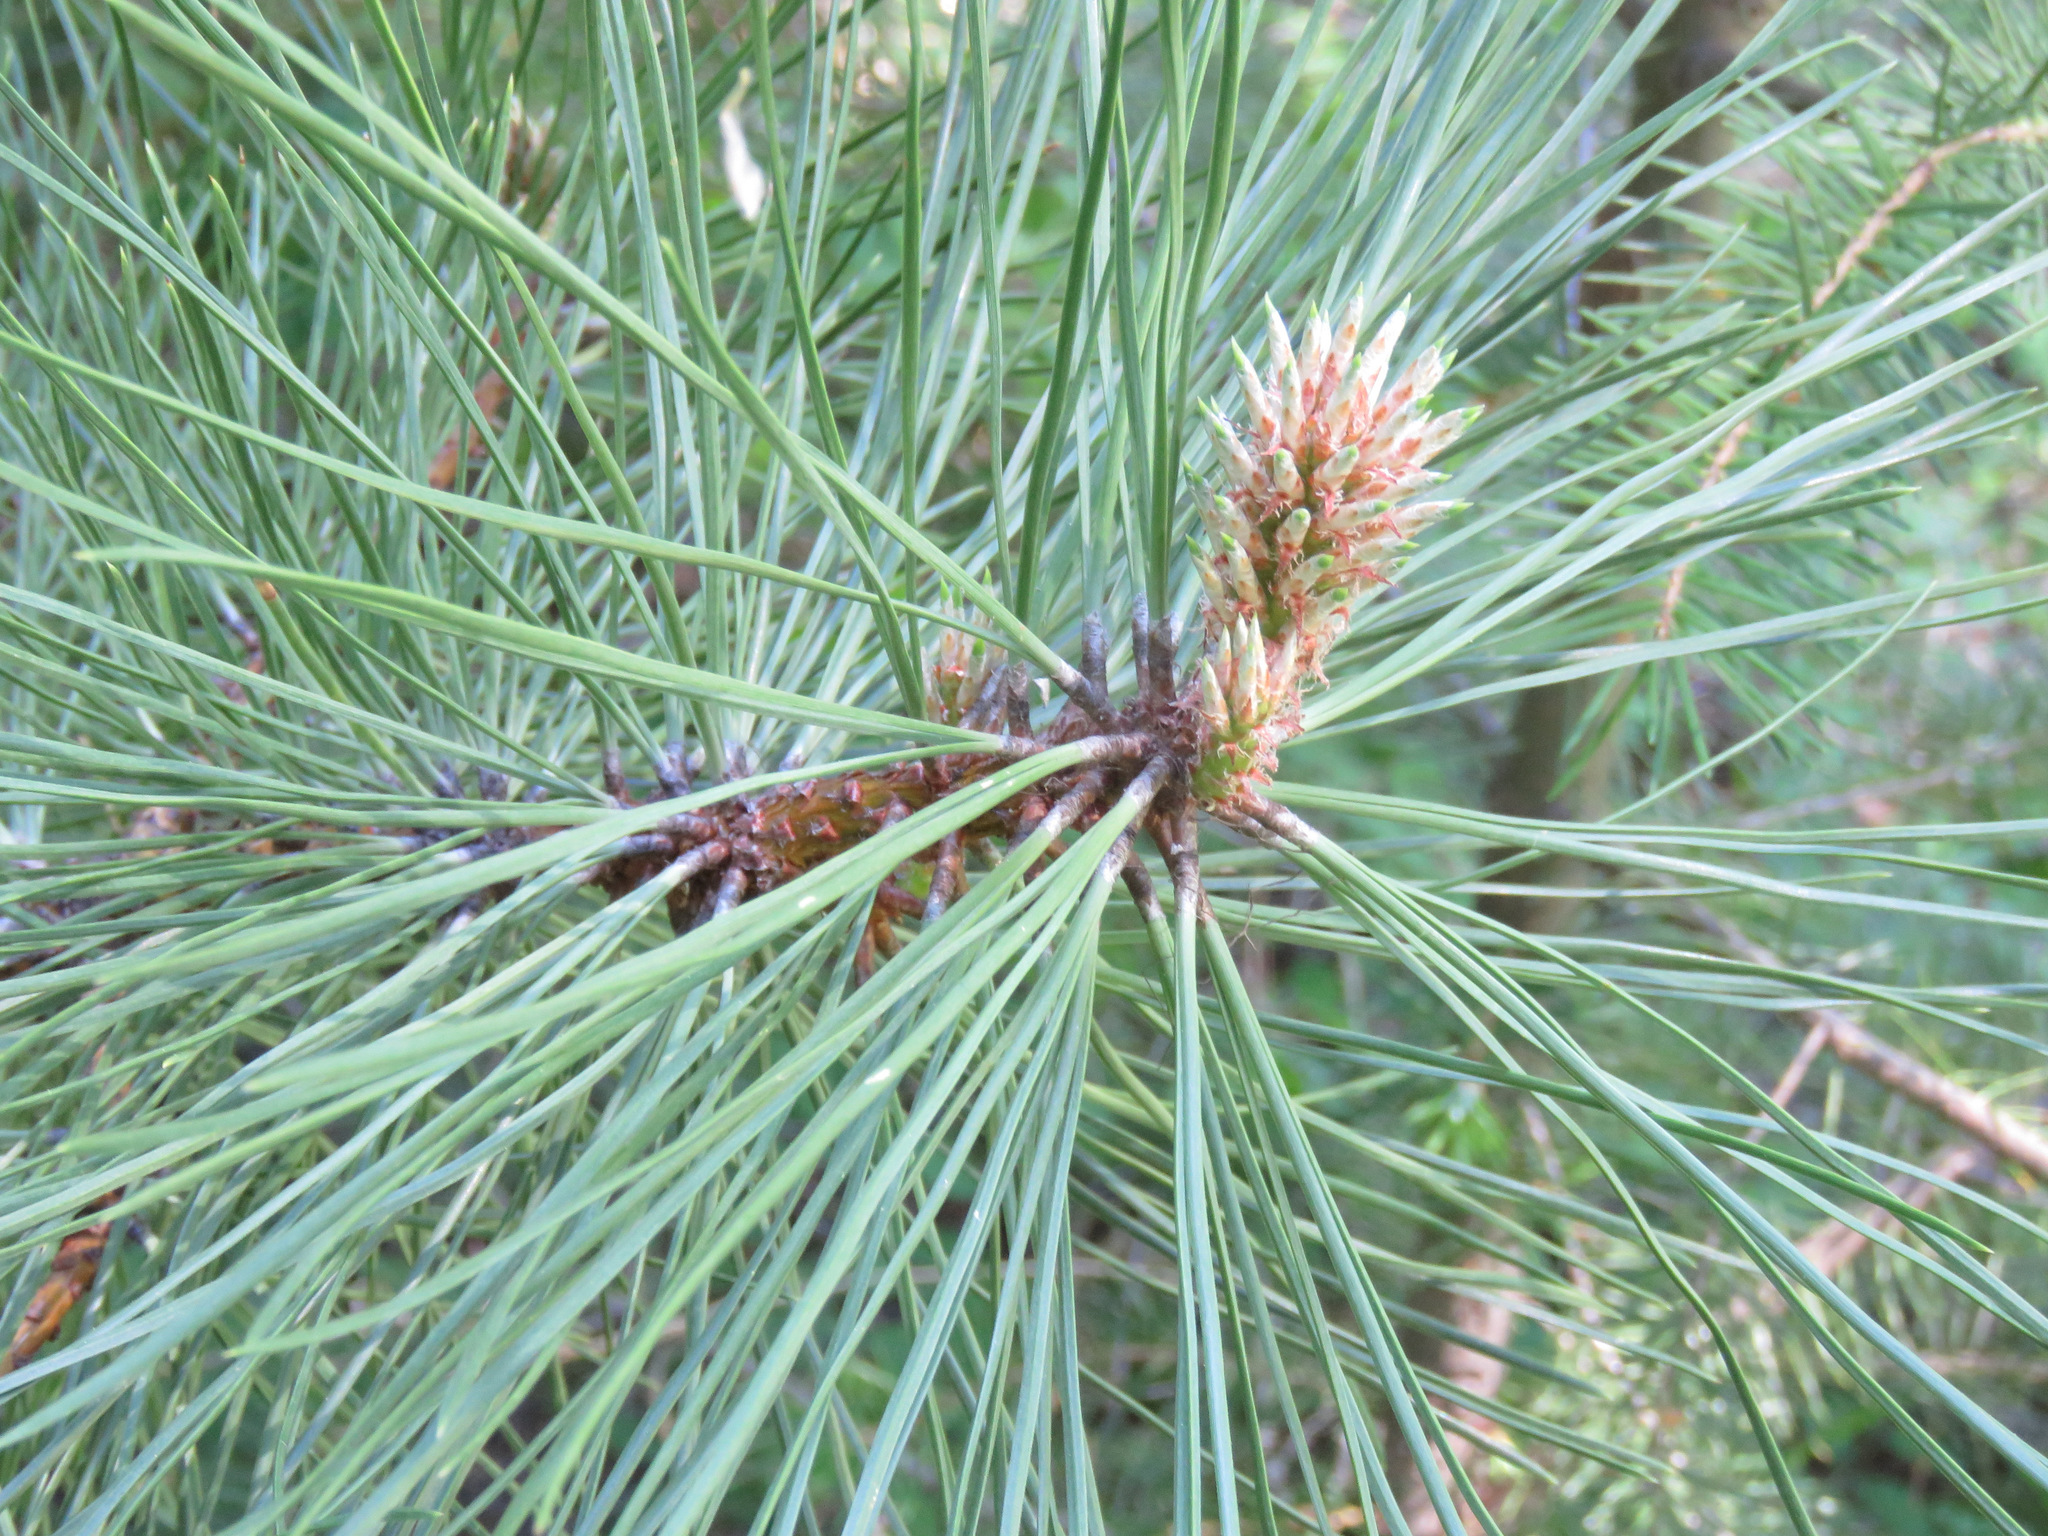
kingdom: Plantae
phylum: Tracheophyta
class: Pinopsida
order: Pinales
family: Pinaceae
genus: Pinus
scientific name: Pinus ponderosa
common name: Western yellow-pine
